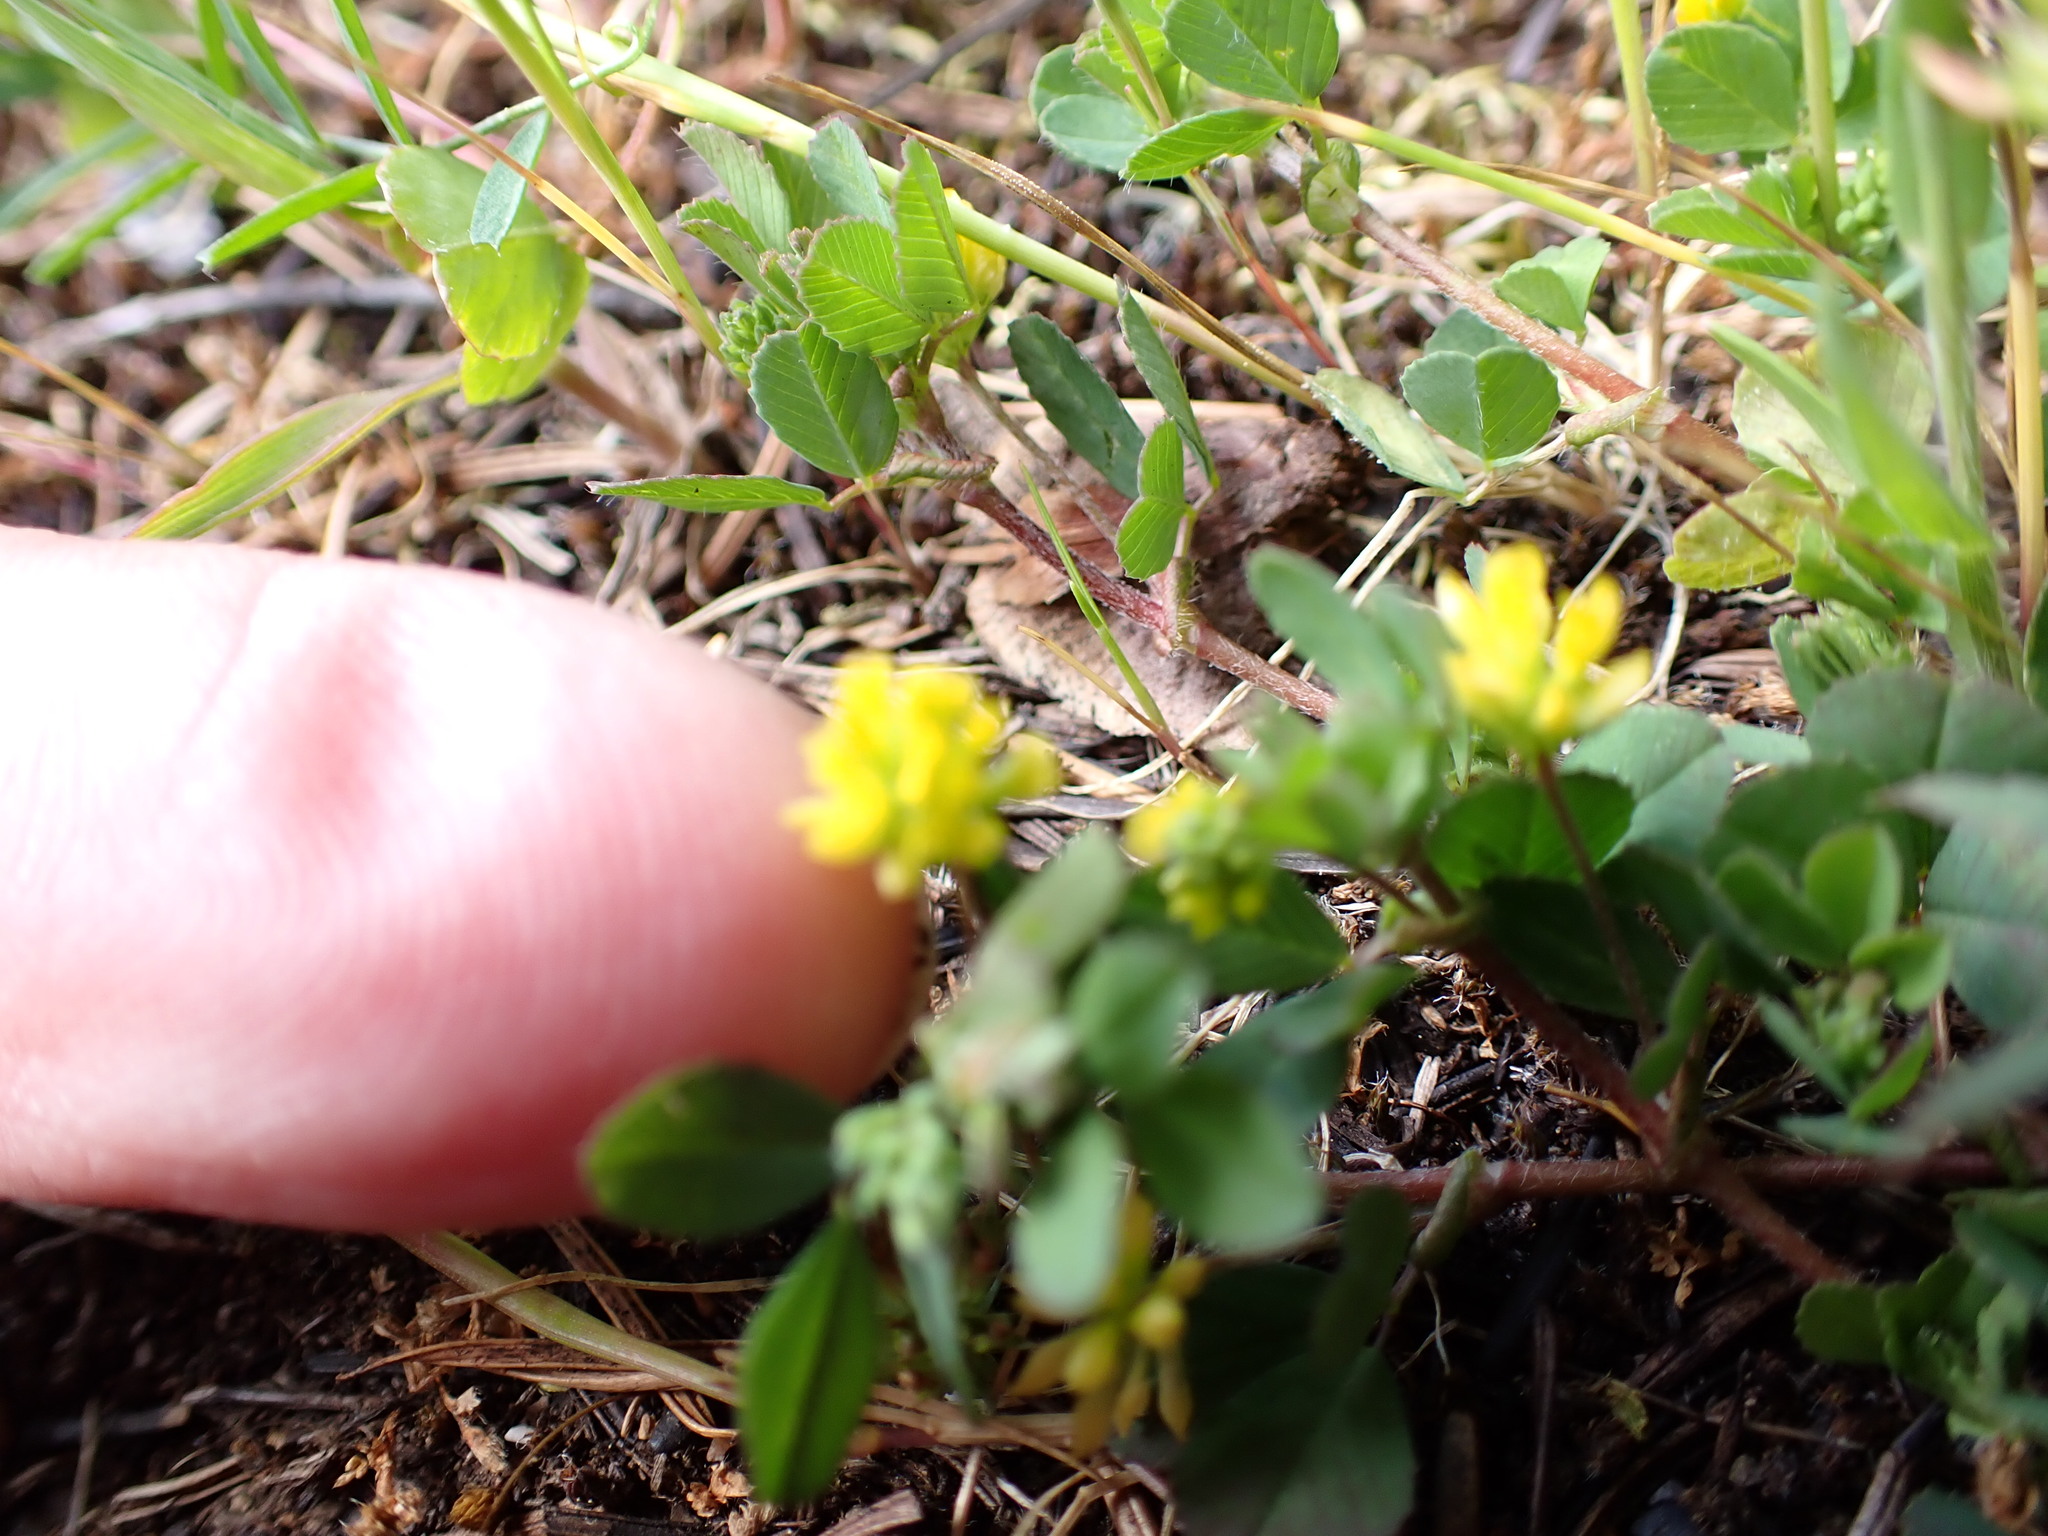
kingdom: Plantae
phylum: Tracheophyta
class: Magnoliopsida
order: Fabales
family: Fabaceae
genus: Trifolium
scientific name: Trifolium dubium
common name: Suckling clover
